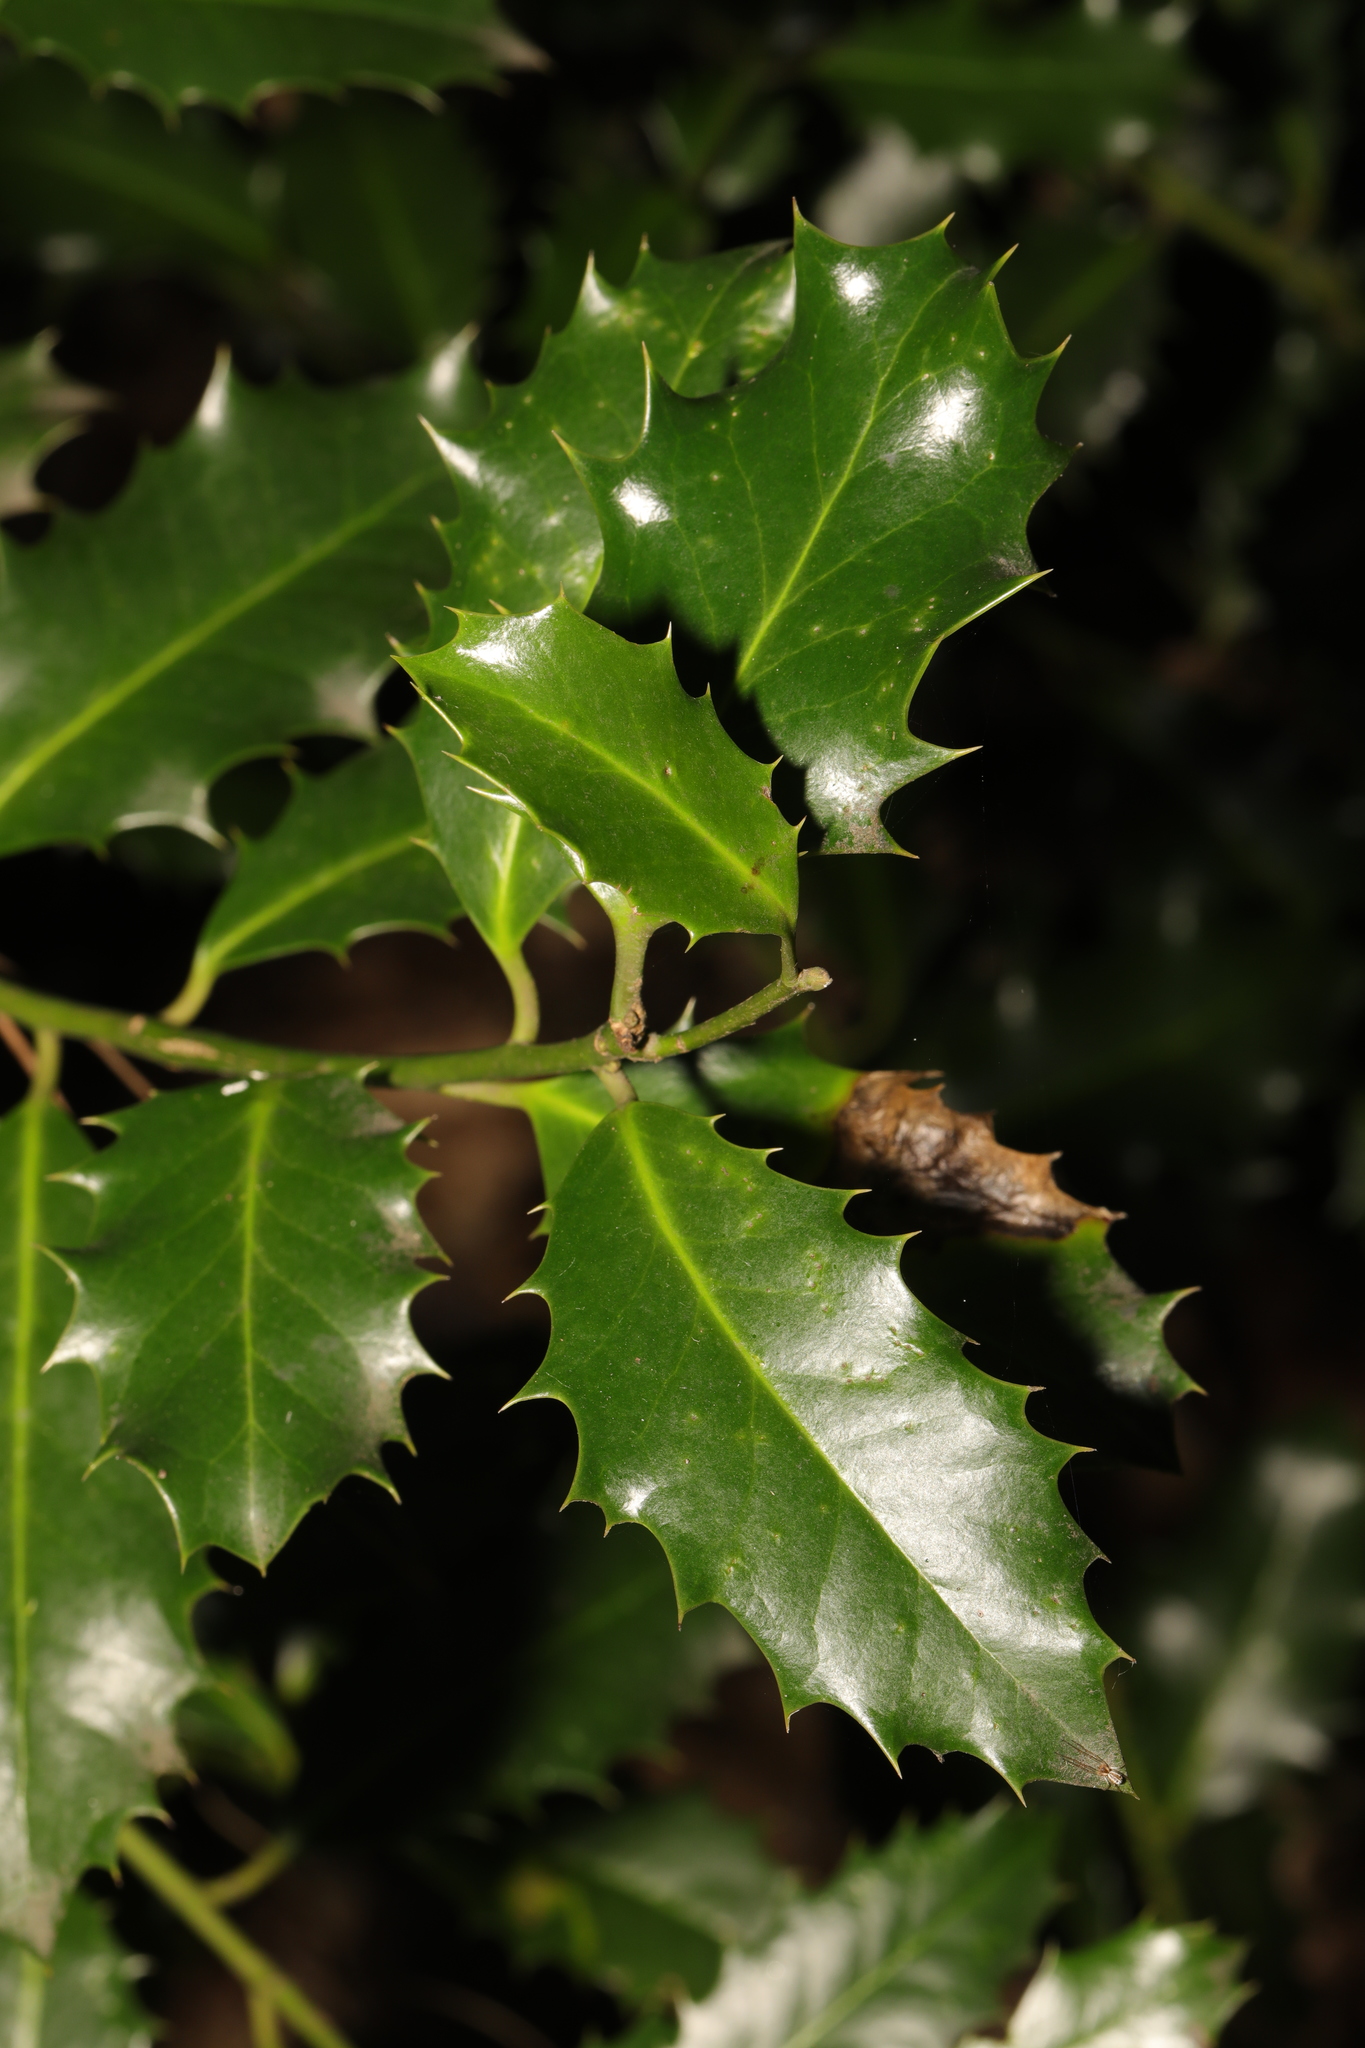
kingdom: Plantae
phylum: Tracheophyta
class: Magnoliopsida
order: Aquifoliales
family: Aquifoliaceae
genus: Ilex
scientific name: Ilex aquifolium
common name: English holly
